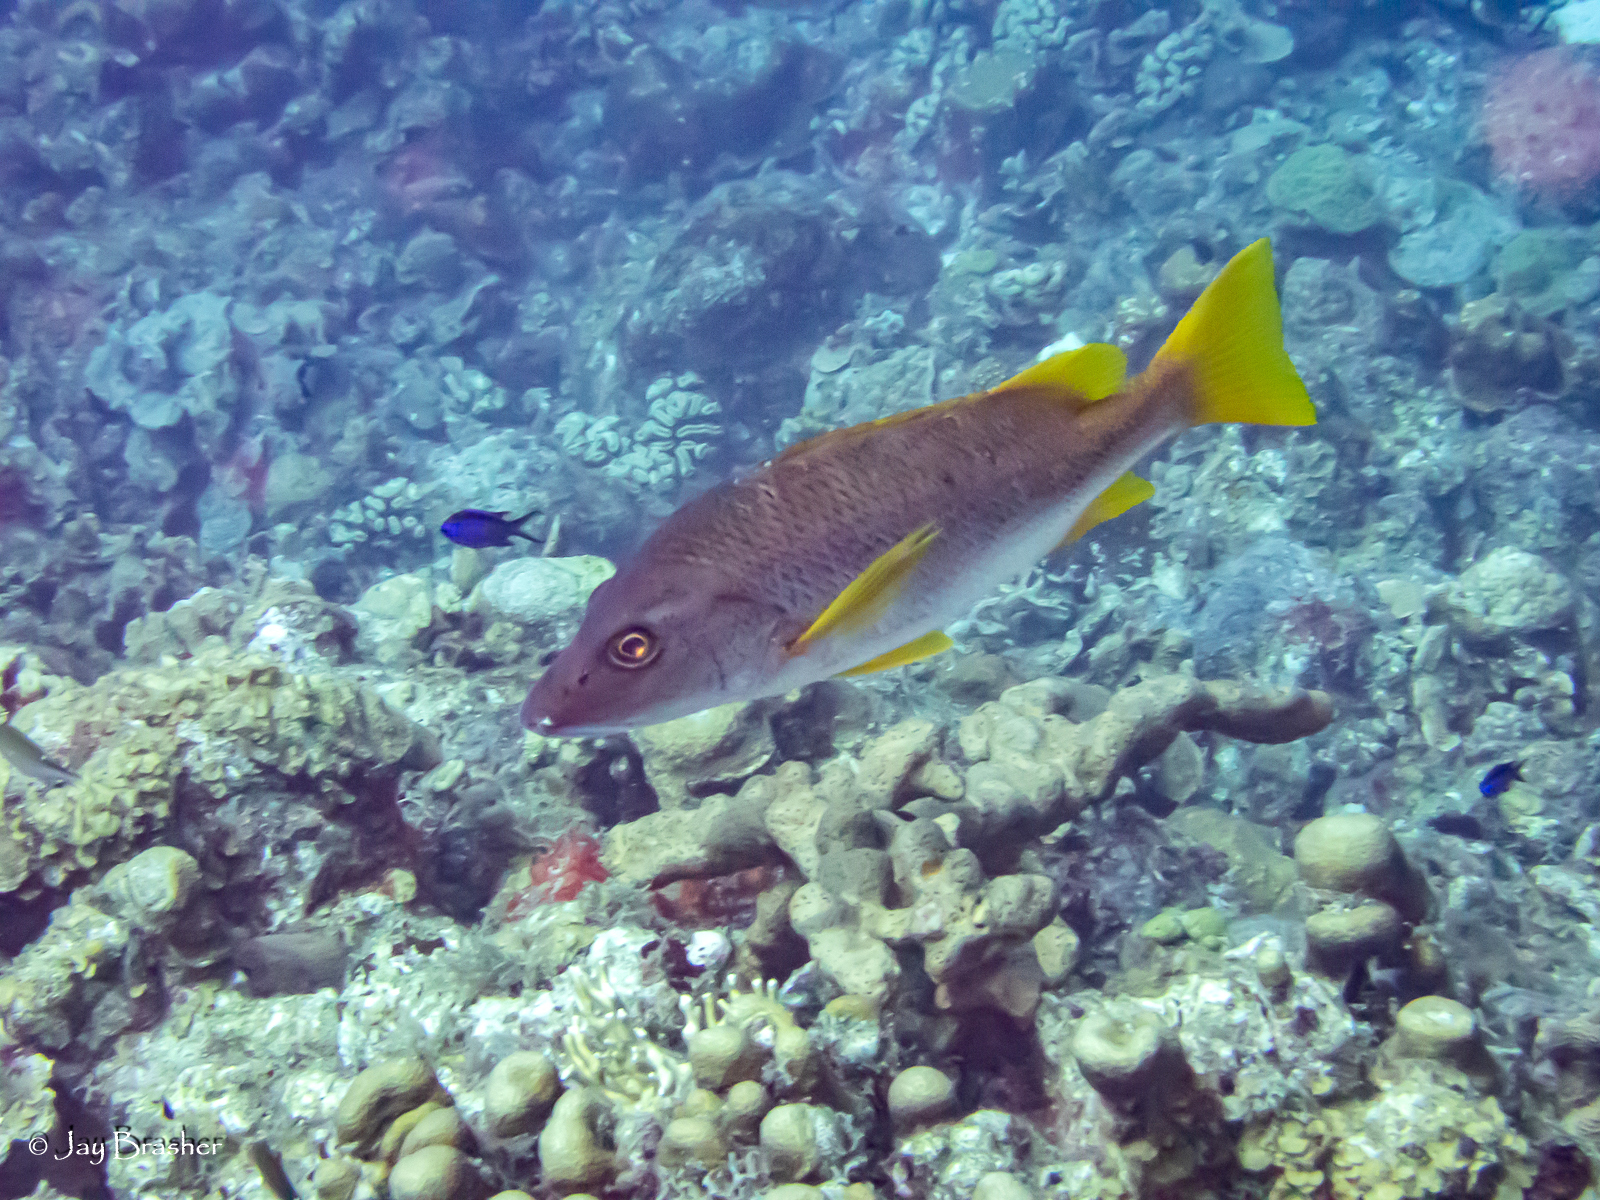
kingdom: Animalia
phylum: Chordata
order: Perciformes
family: Lutjanidae
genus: Lutjanus
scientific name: Lutjanus apodus
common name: Schoolmaster
